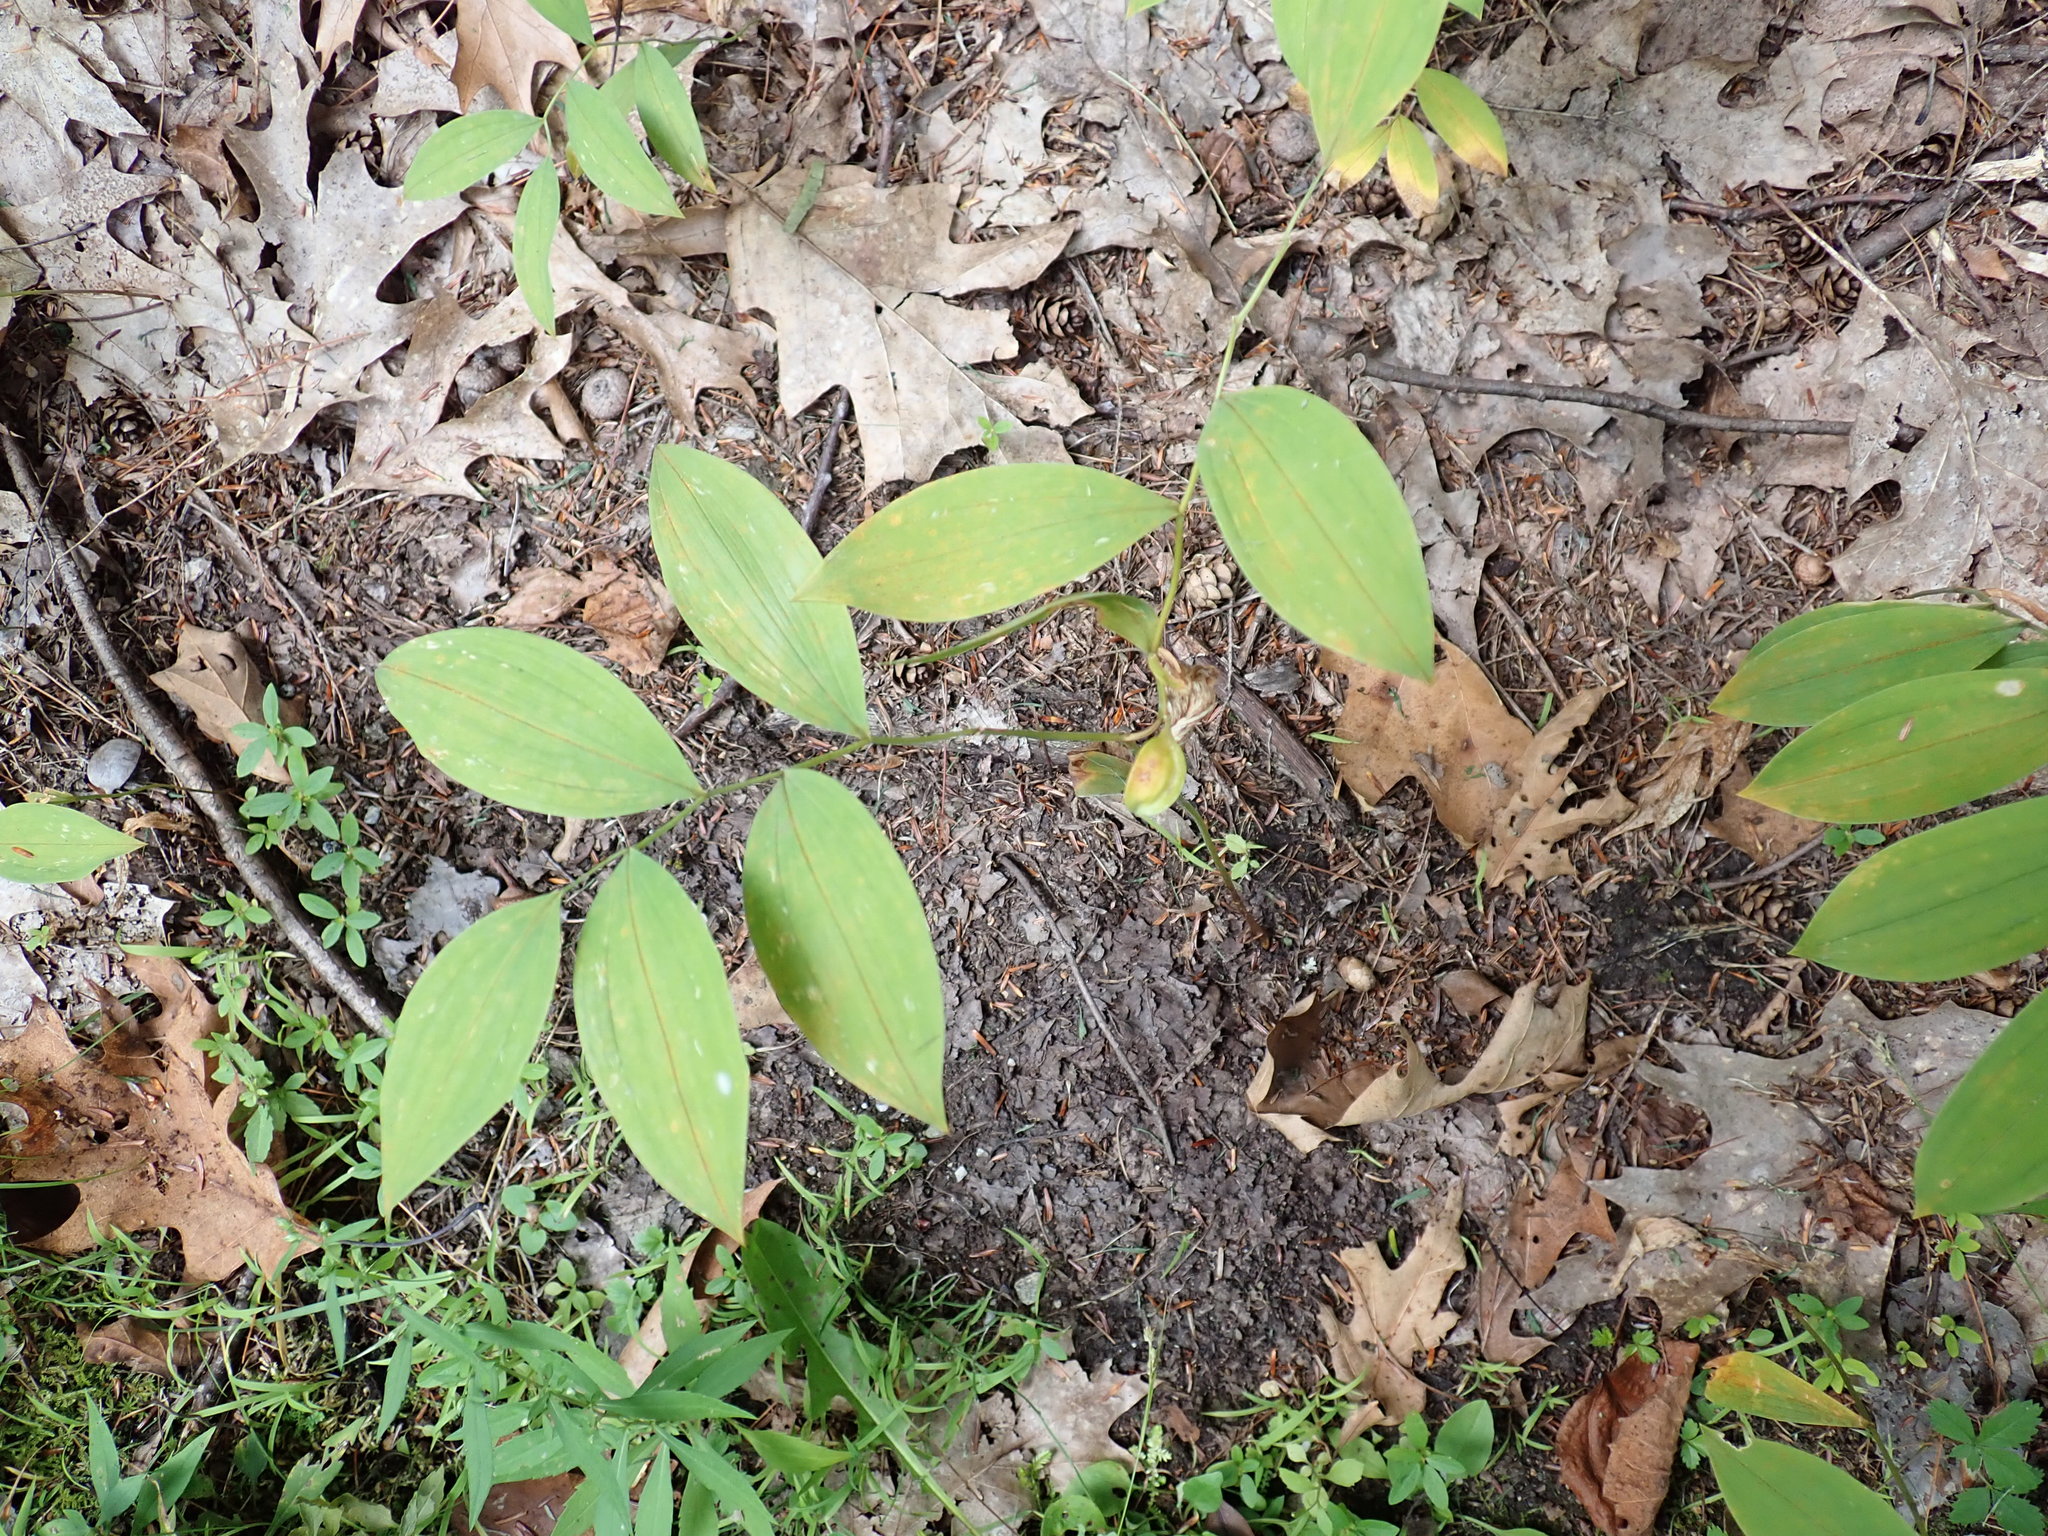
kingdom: Plantae
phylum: Tracheophyta
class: Liliopsida
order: Liliales
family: Colchicaceae
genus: Uvularia
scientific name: Uvularia sessilifolia
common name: Straw-lily
